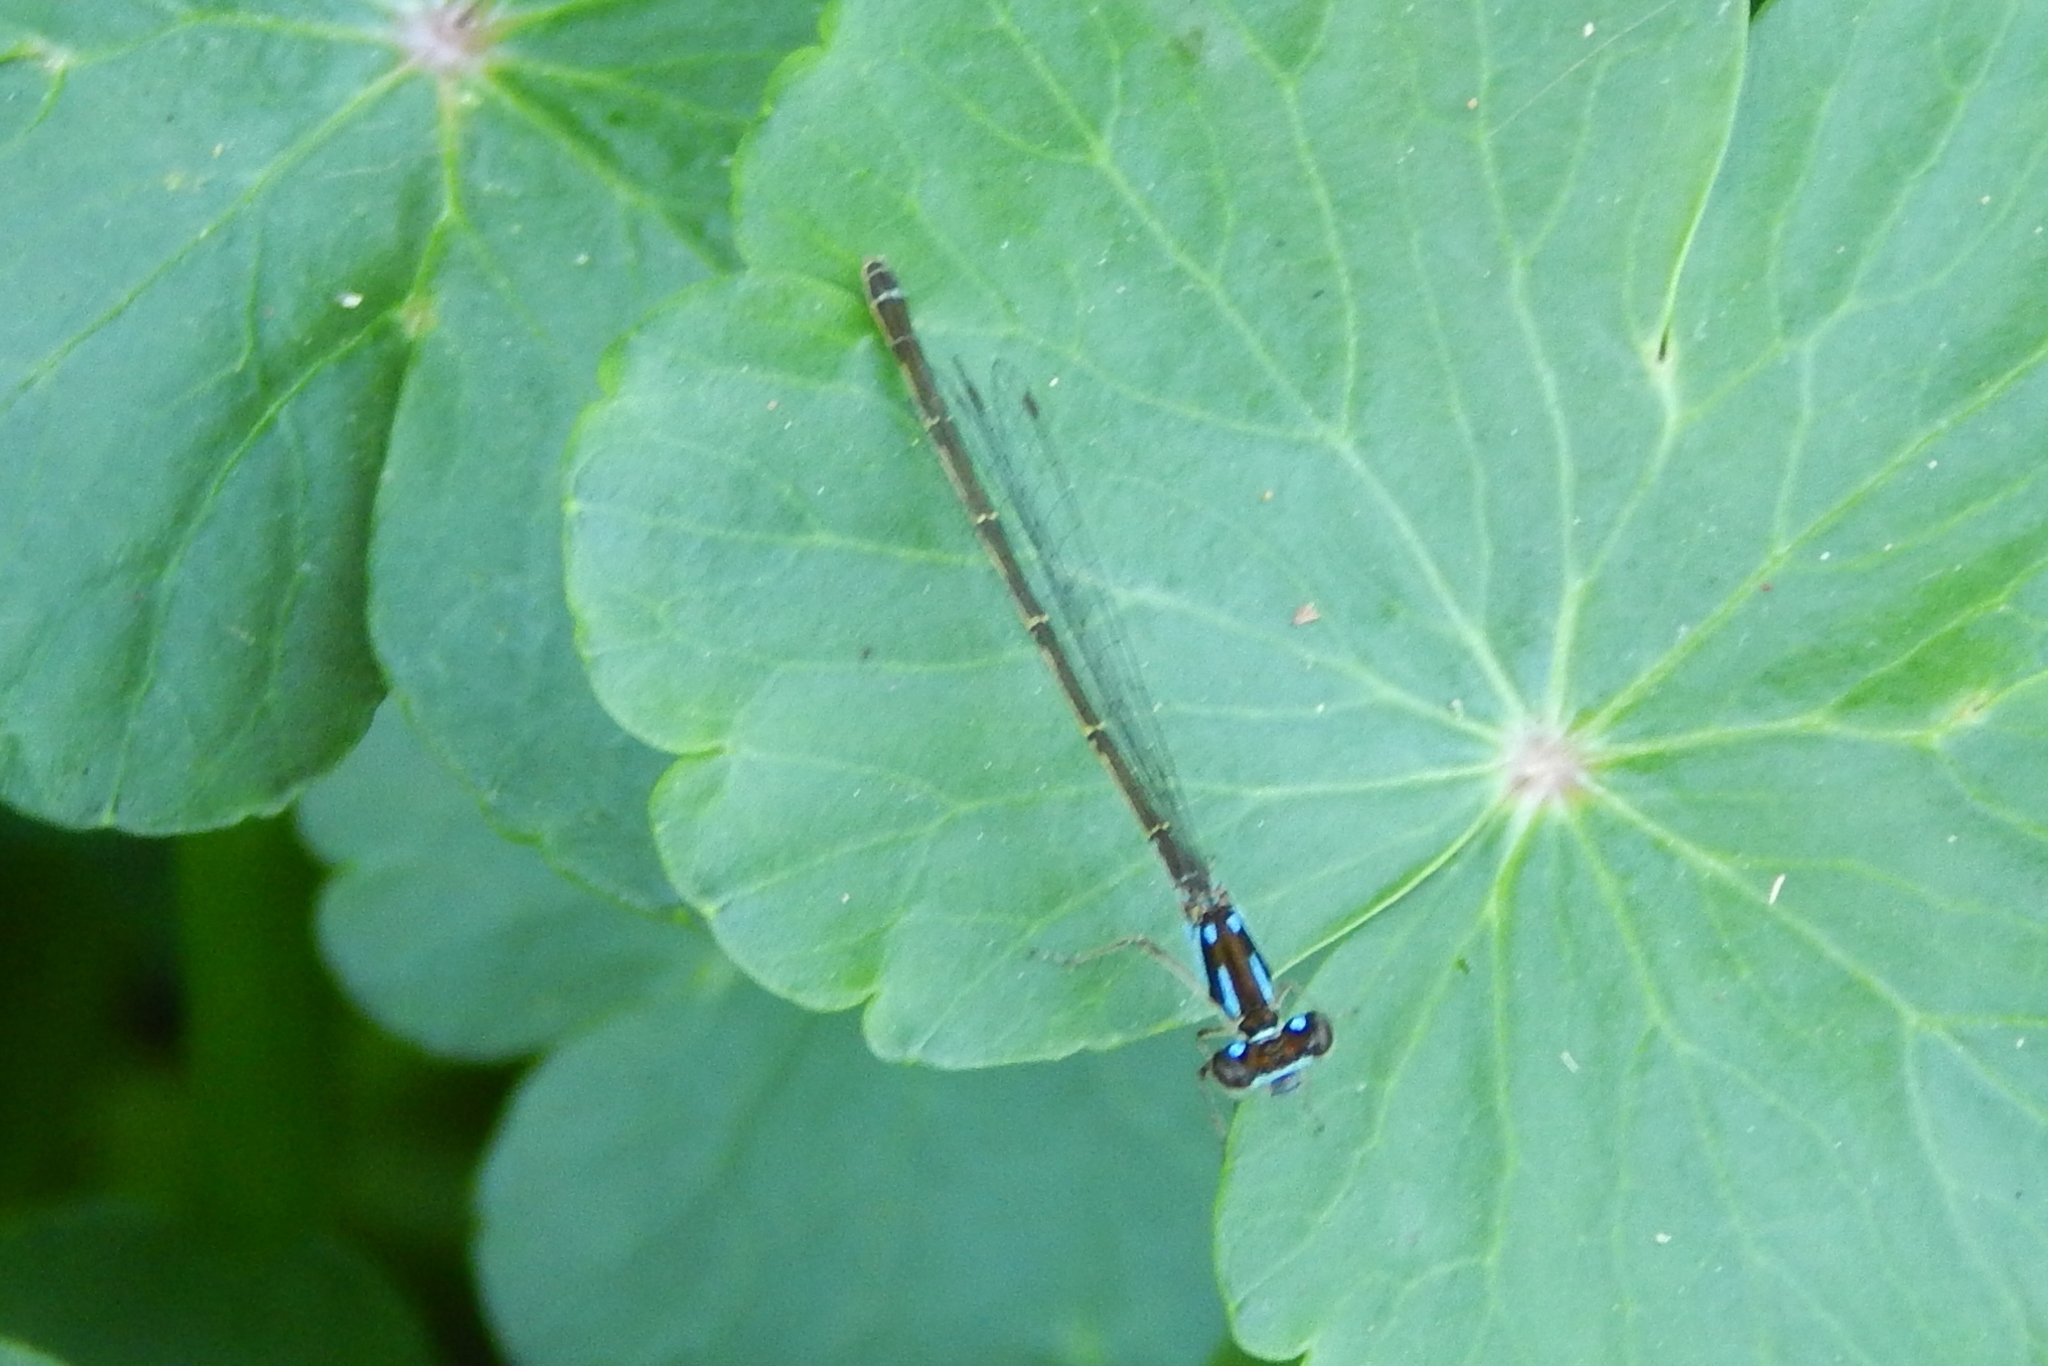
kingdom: Animalia
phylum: Arthropoda
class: Insecta
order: Odonata
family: Coenagrionidae
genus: Ischnura
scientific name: Ischnura posita
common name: Fragile forktail
